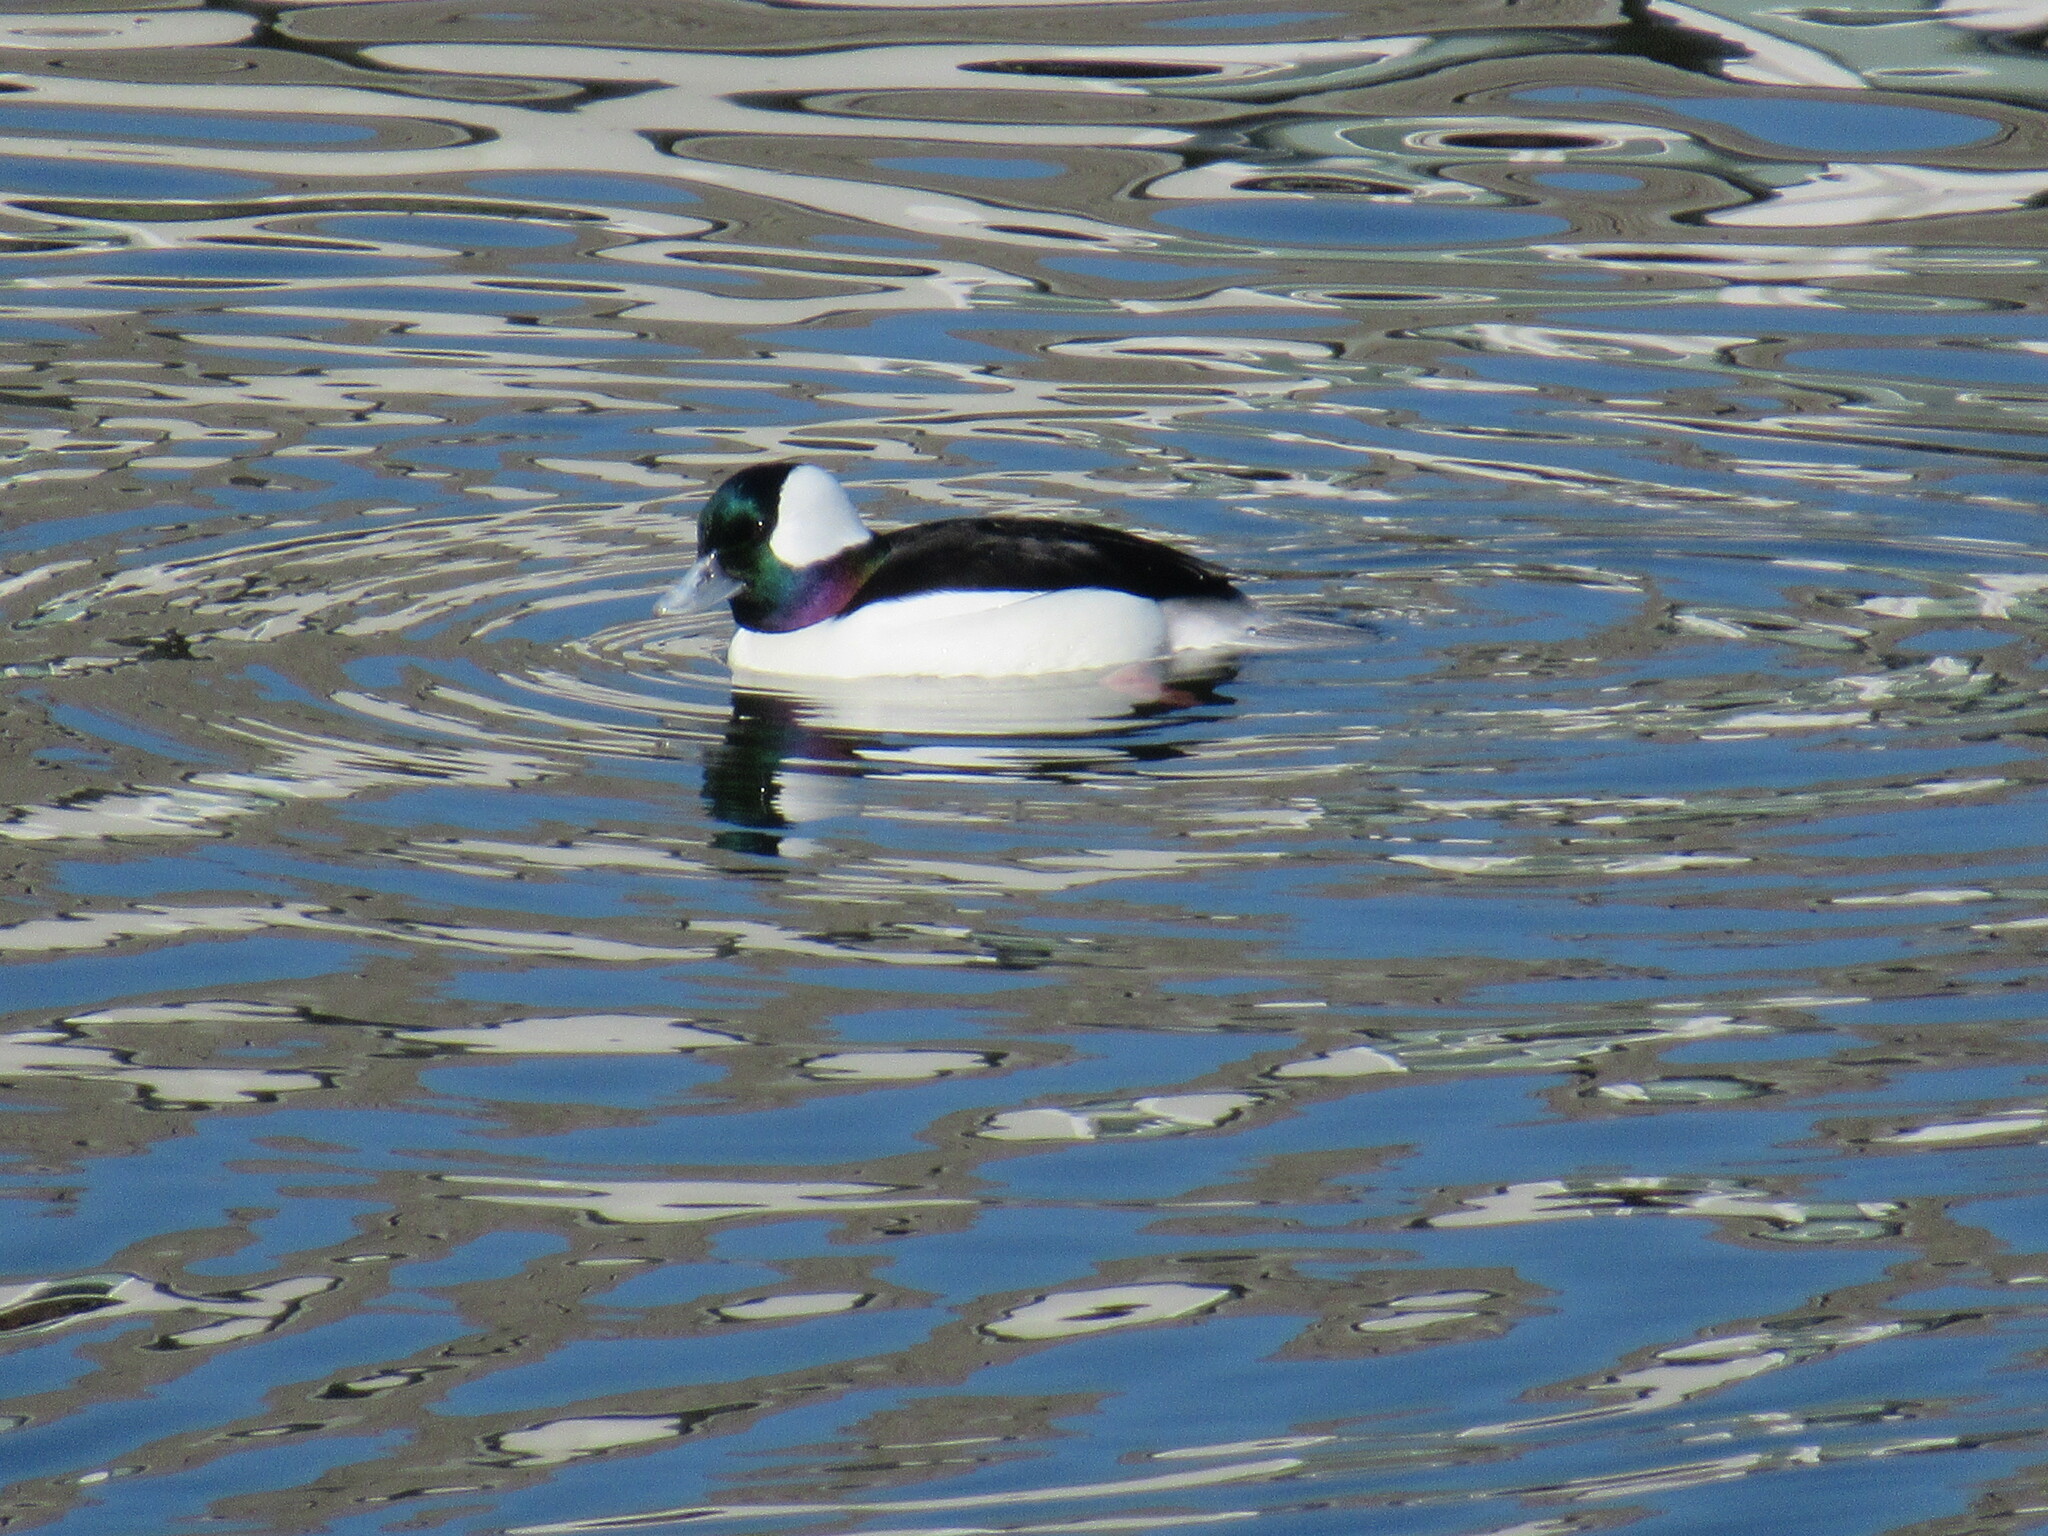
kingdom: Animalia
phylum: Chordata
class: Aves
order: Anseriformes
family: Anatidae
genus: Bucephala
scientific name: Bucephala albeola
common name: Bufflehead
